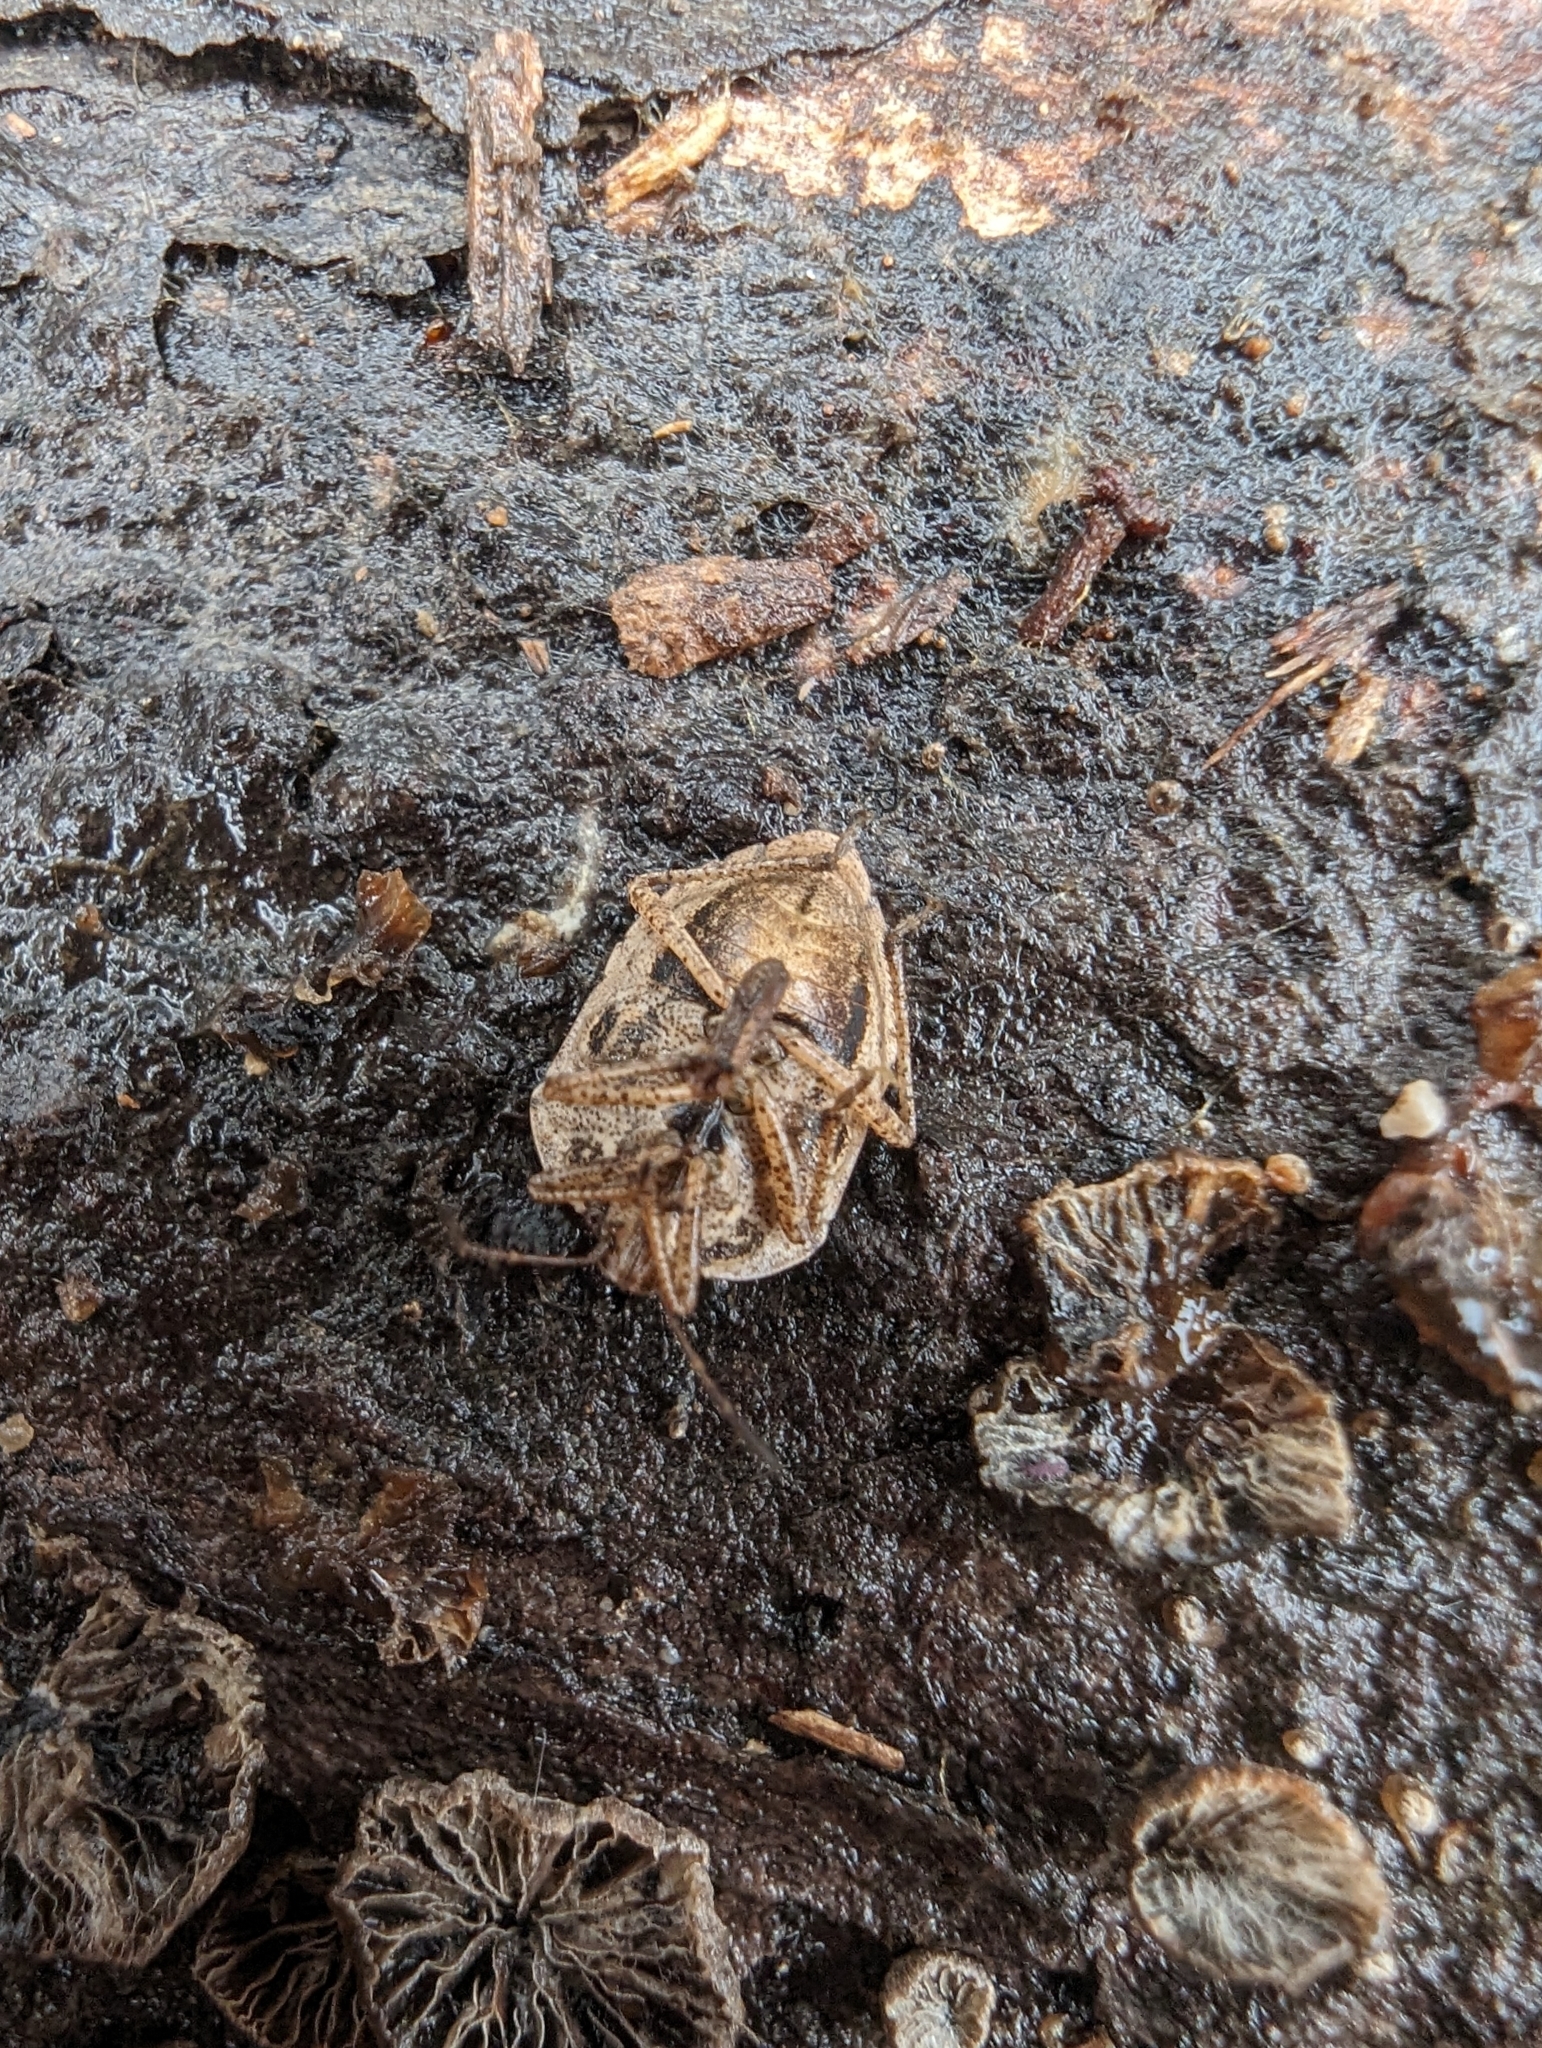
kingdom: Animalia
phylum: Arthropoda
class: Insecta
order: Hemiptera
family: Pentatomidae
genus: Hymenarcys
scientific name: Hymenarcys nervosa
